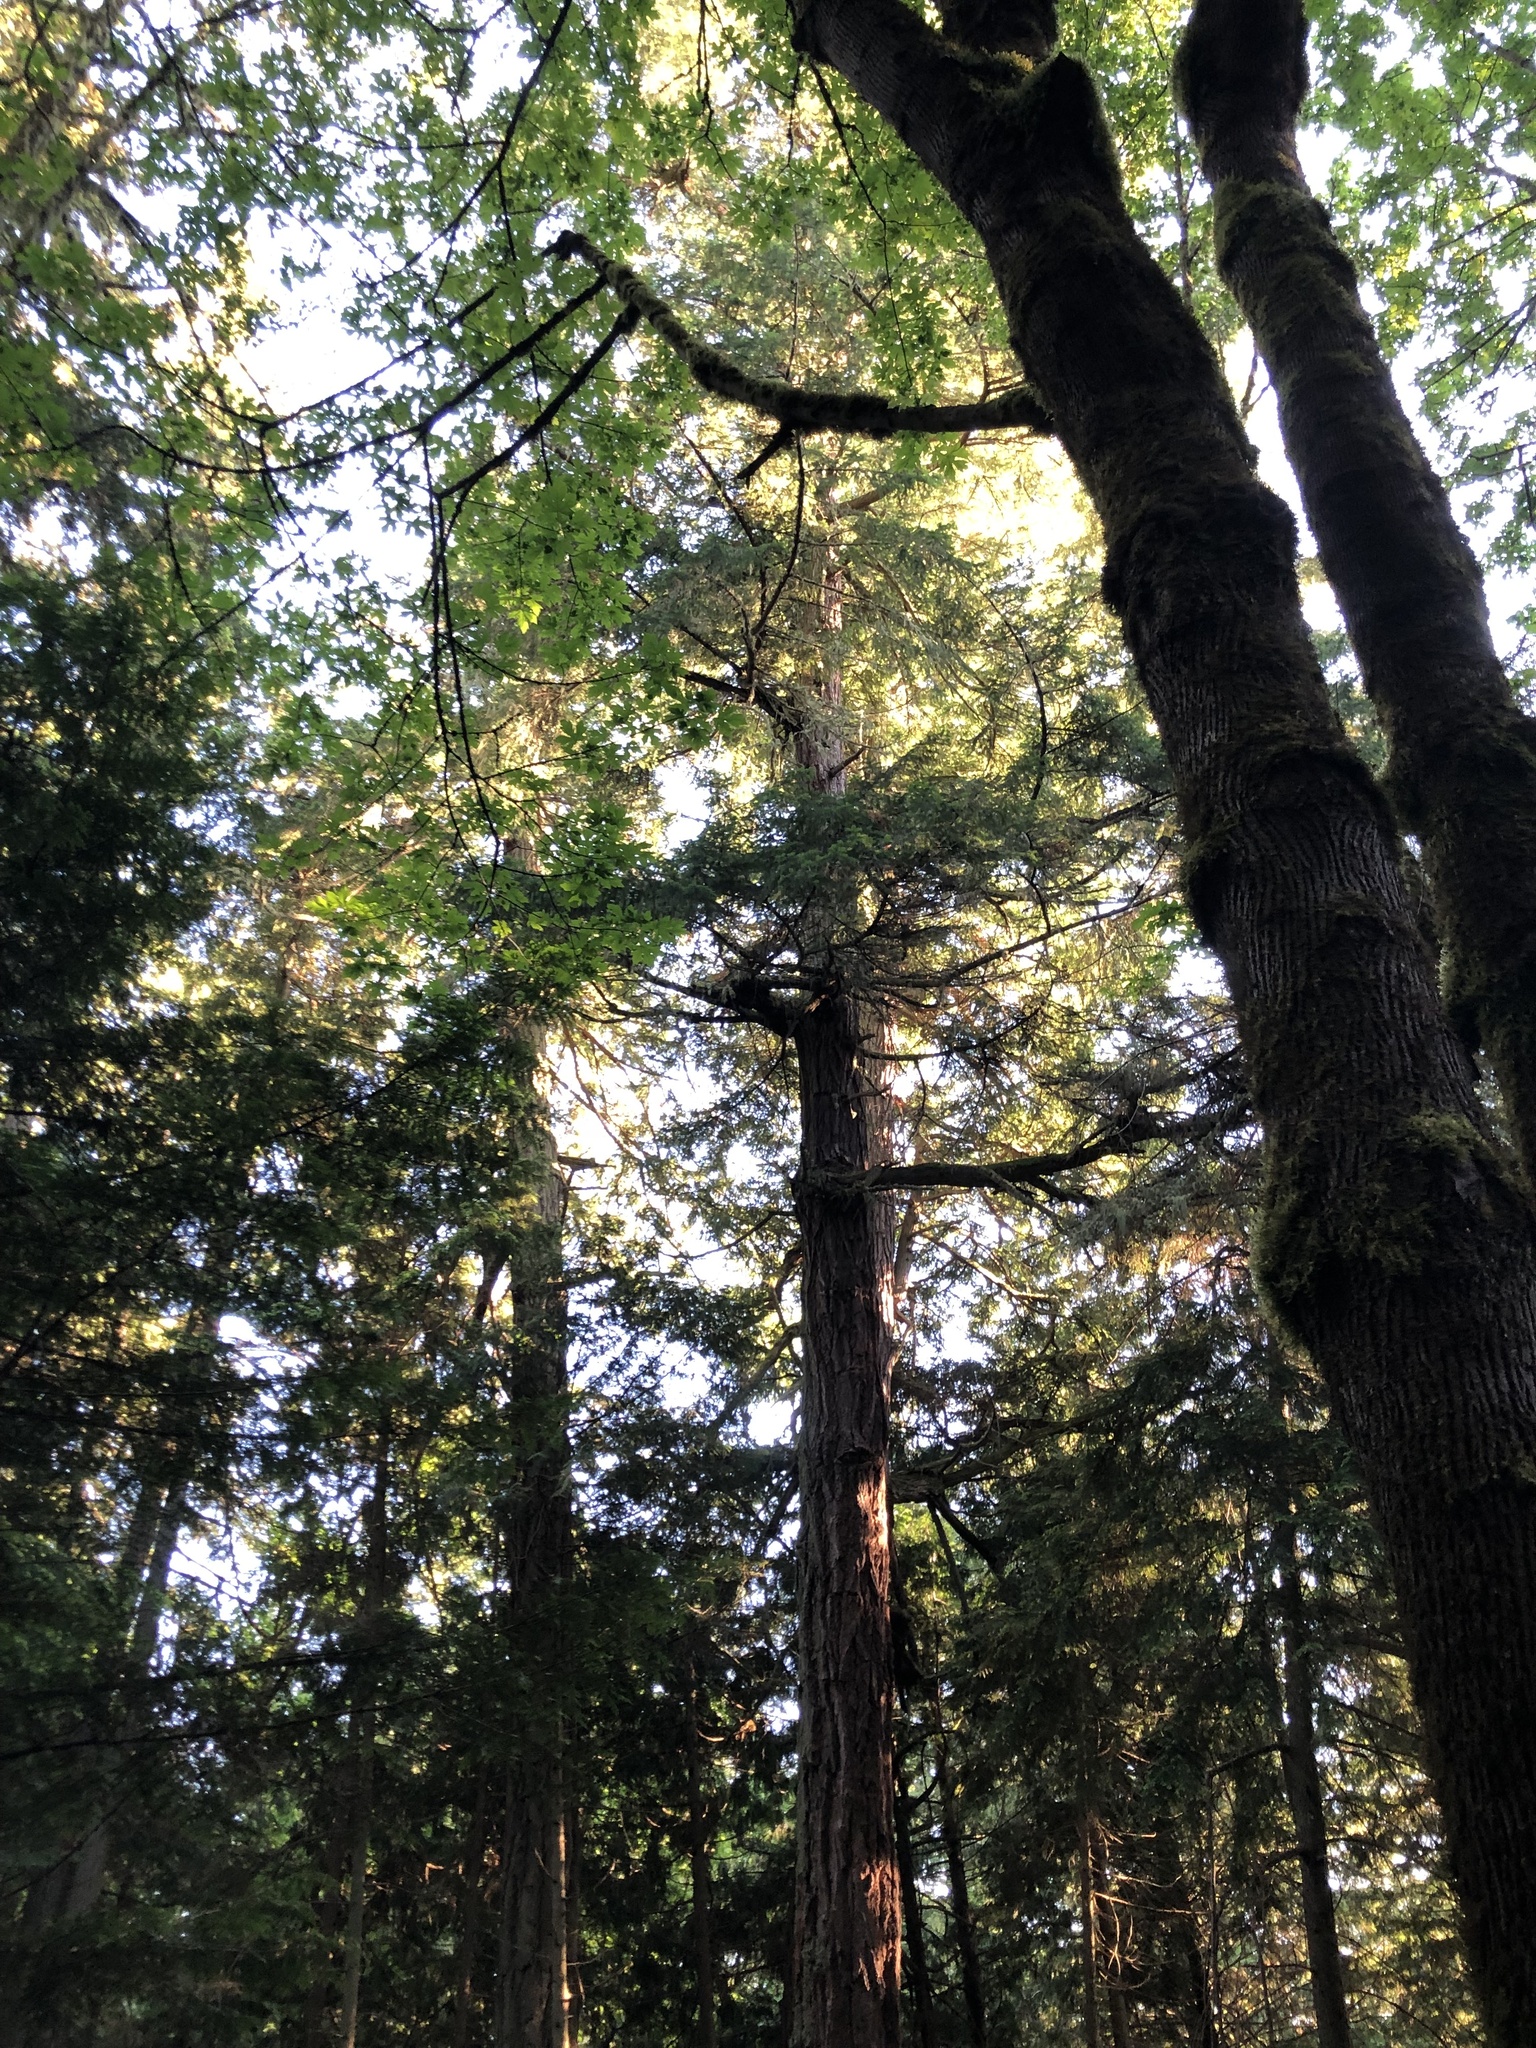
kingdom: Plantae
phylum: Tracheophyta
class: Pinopsida
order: Pinales
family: Pinaceae
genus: Pseudotsuga
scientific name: Pseudotsuga menziesii
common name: Douglas fir
